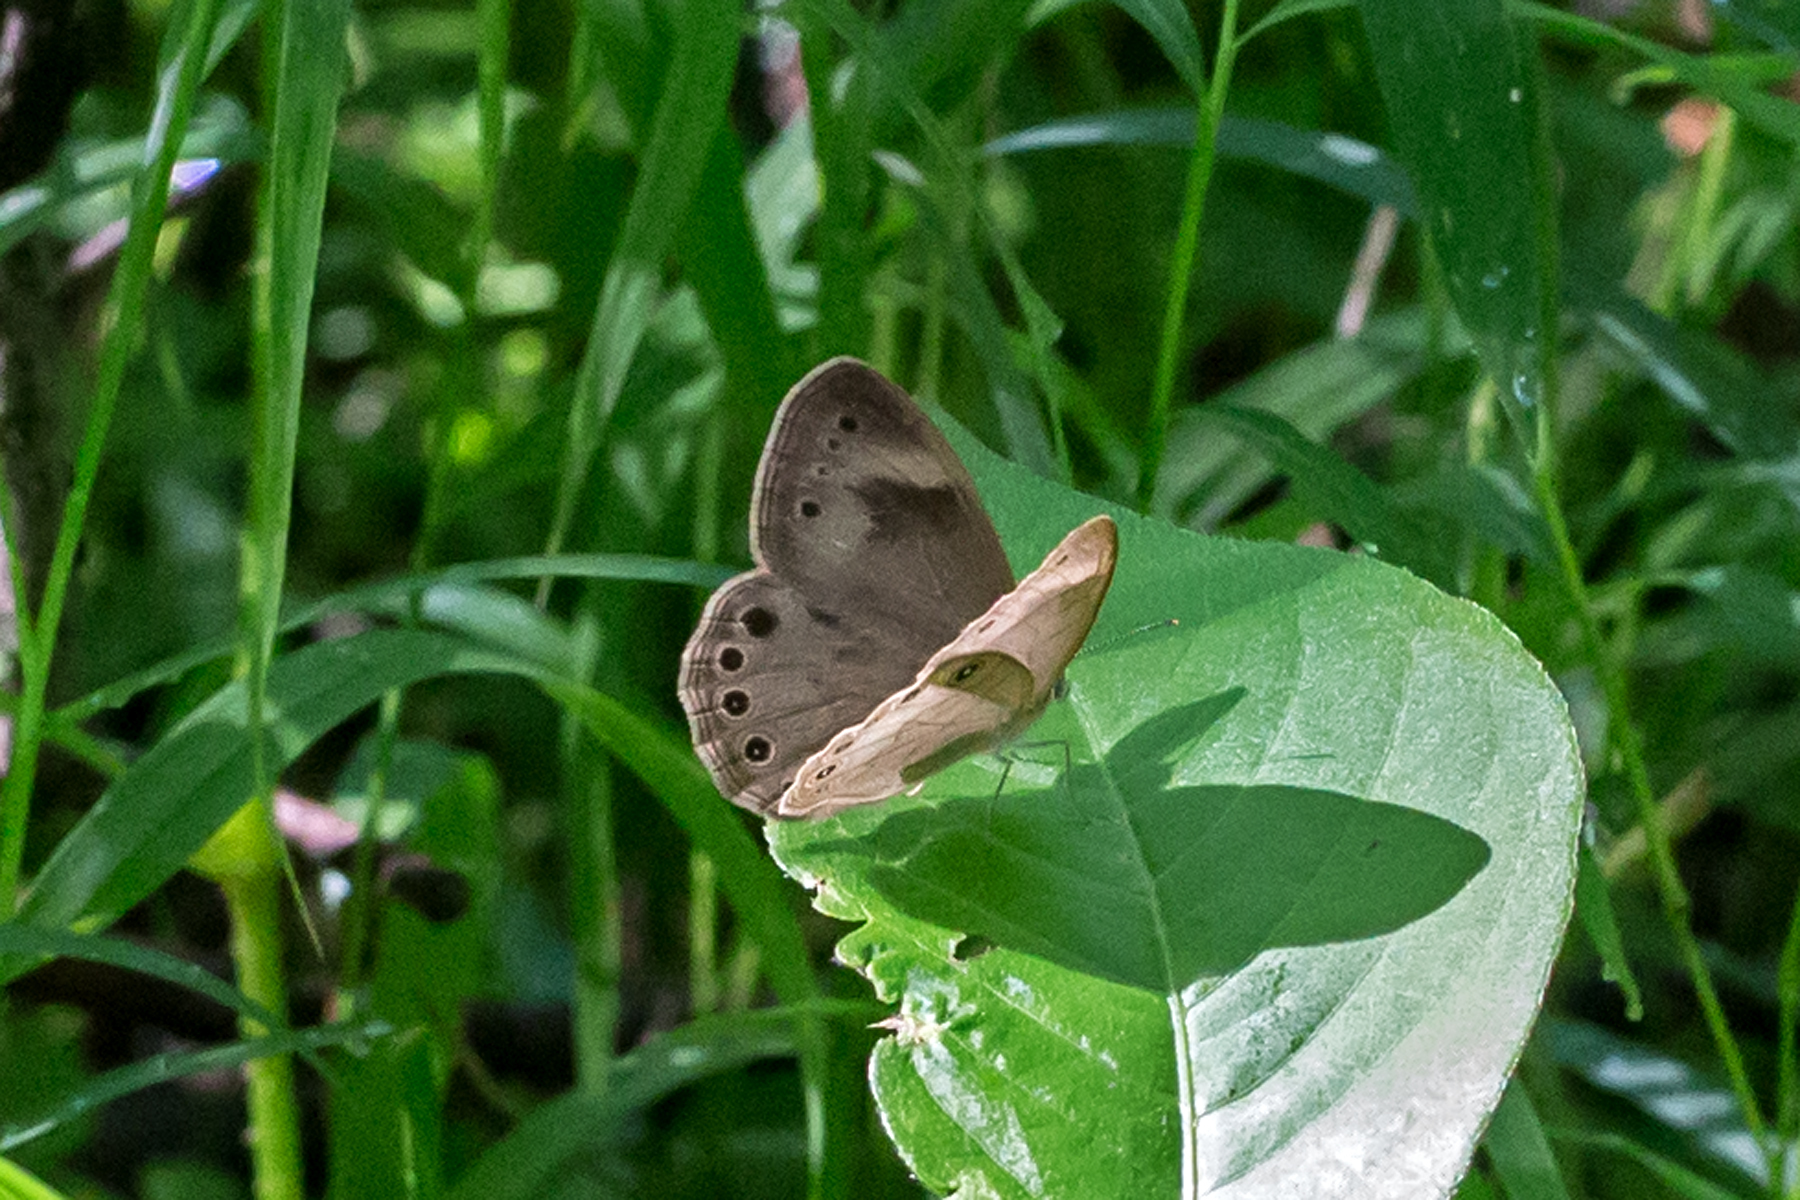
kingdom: Animalia
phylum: Arthropoda
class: Insecta
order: Lepidoptera
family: Nymphalidae
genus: Lethe
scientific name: Lethe eurydice
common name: Eyed brown
